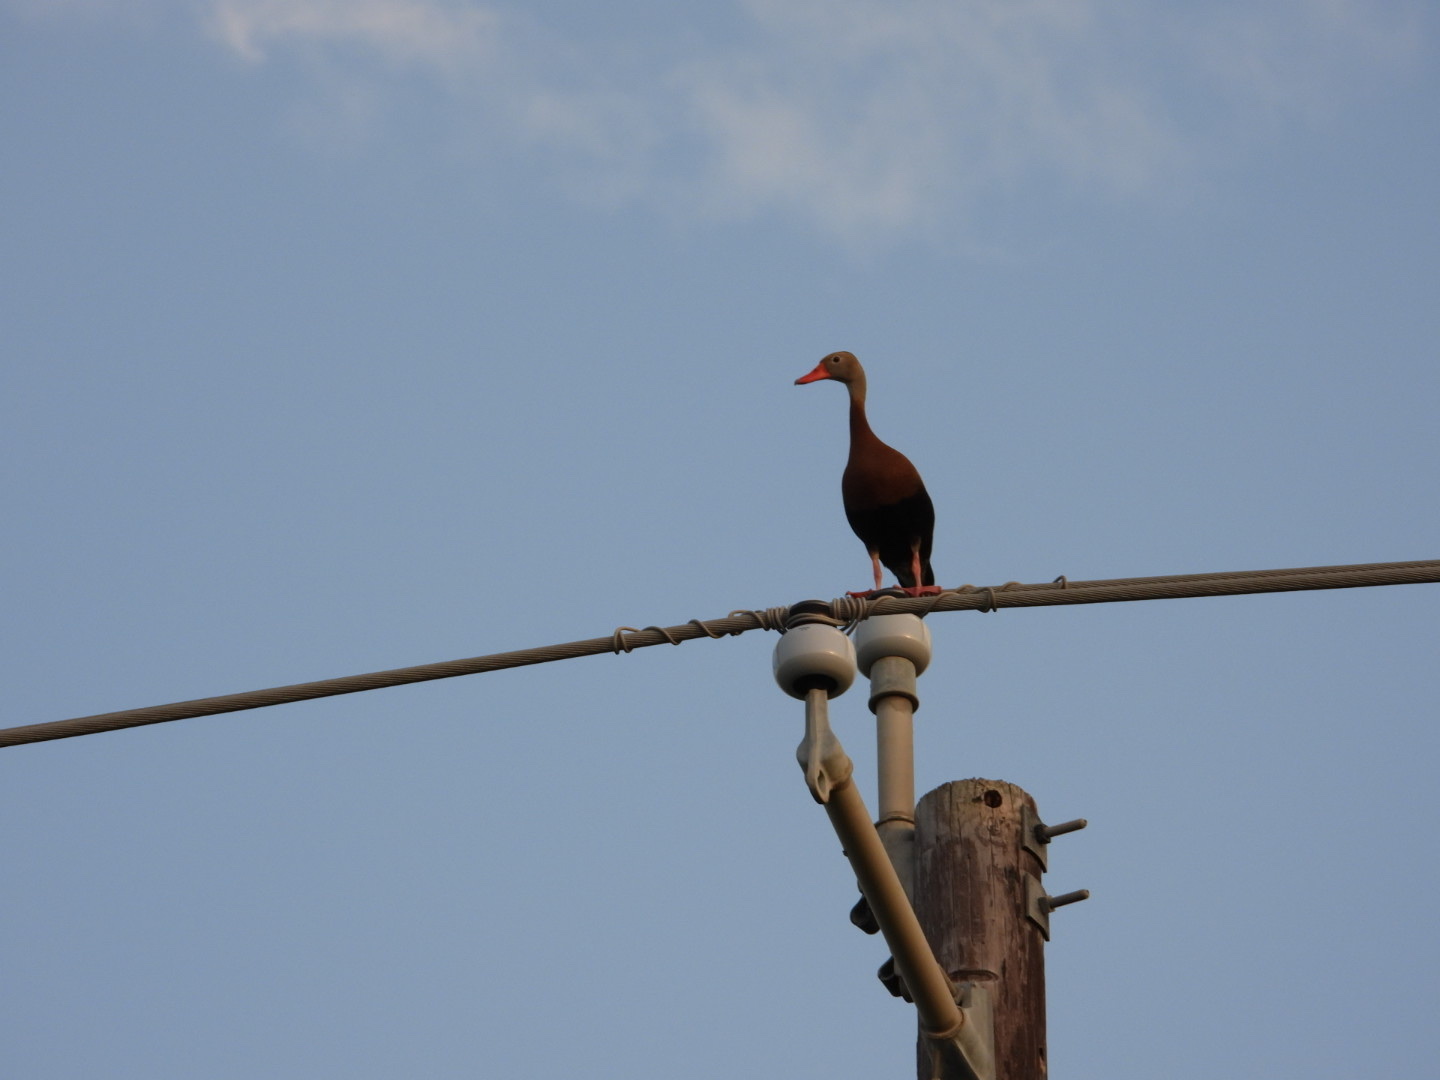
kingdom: Animalia
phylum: Chordata
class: Aves
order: Anseriformes
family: Anatidae
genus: Dendrocygna
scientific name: Dendrocygna autumnalis
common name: Black-bellied whistling duck
